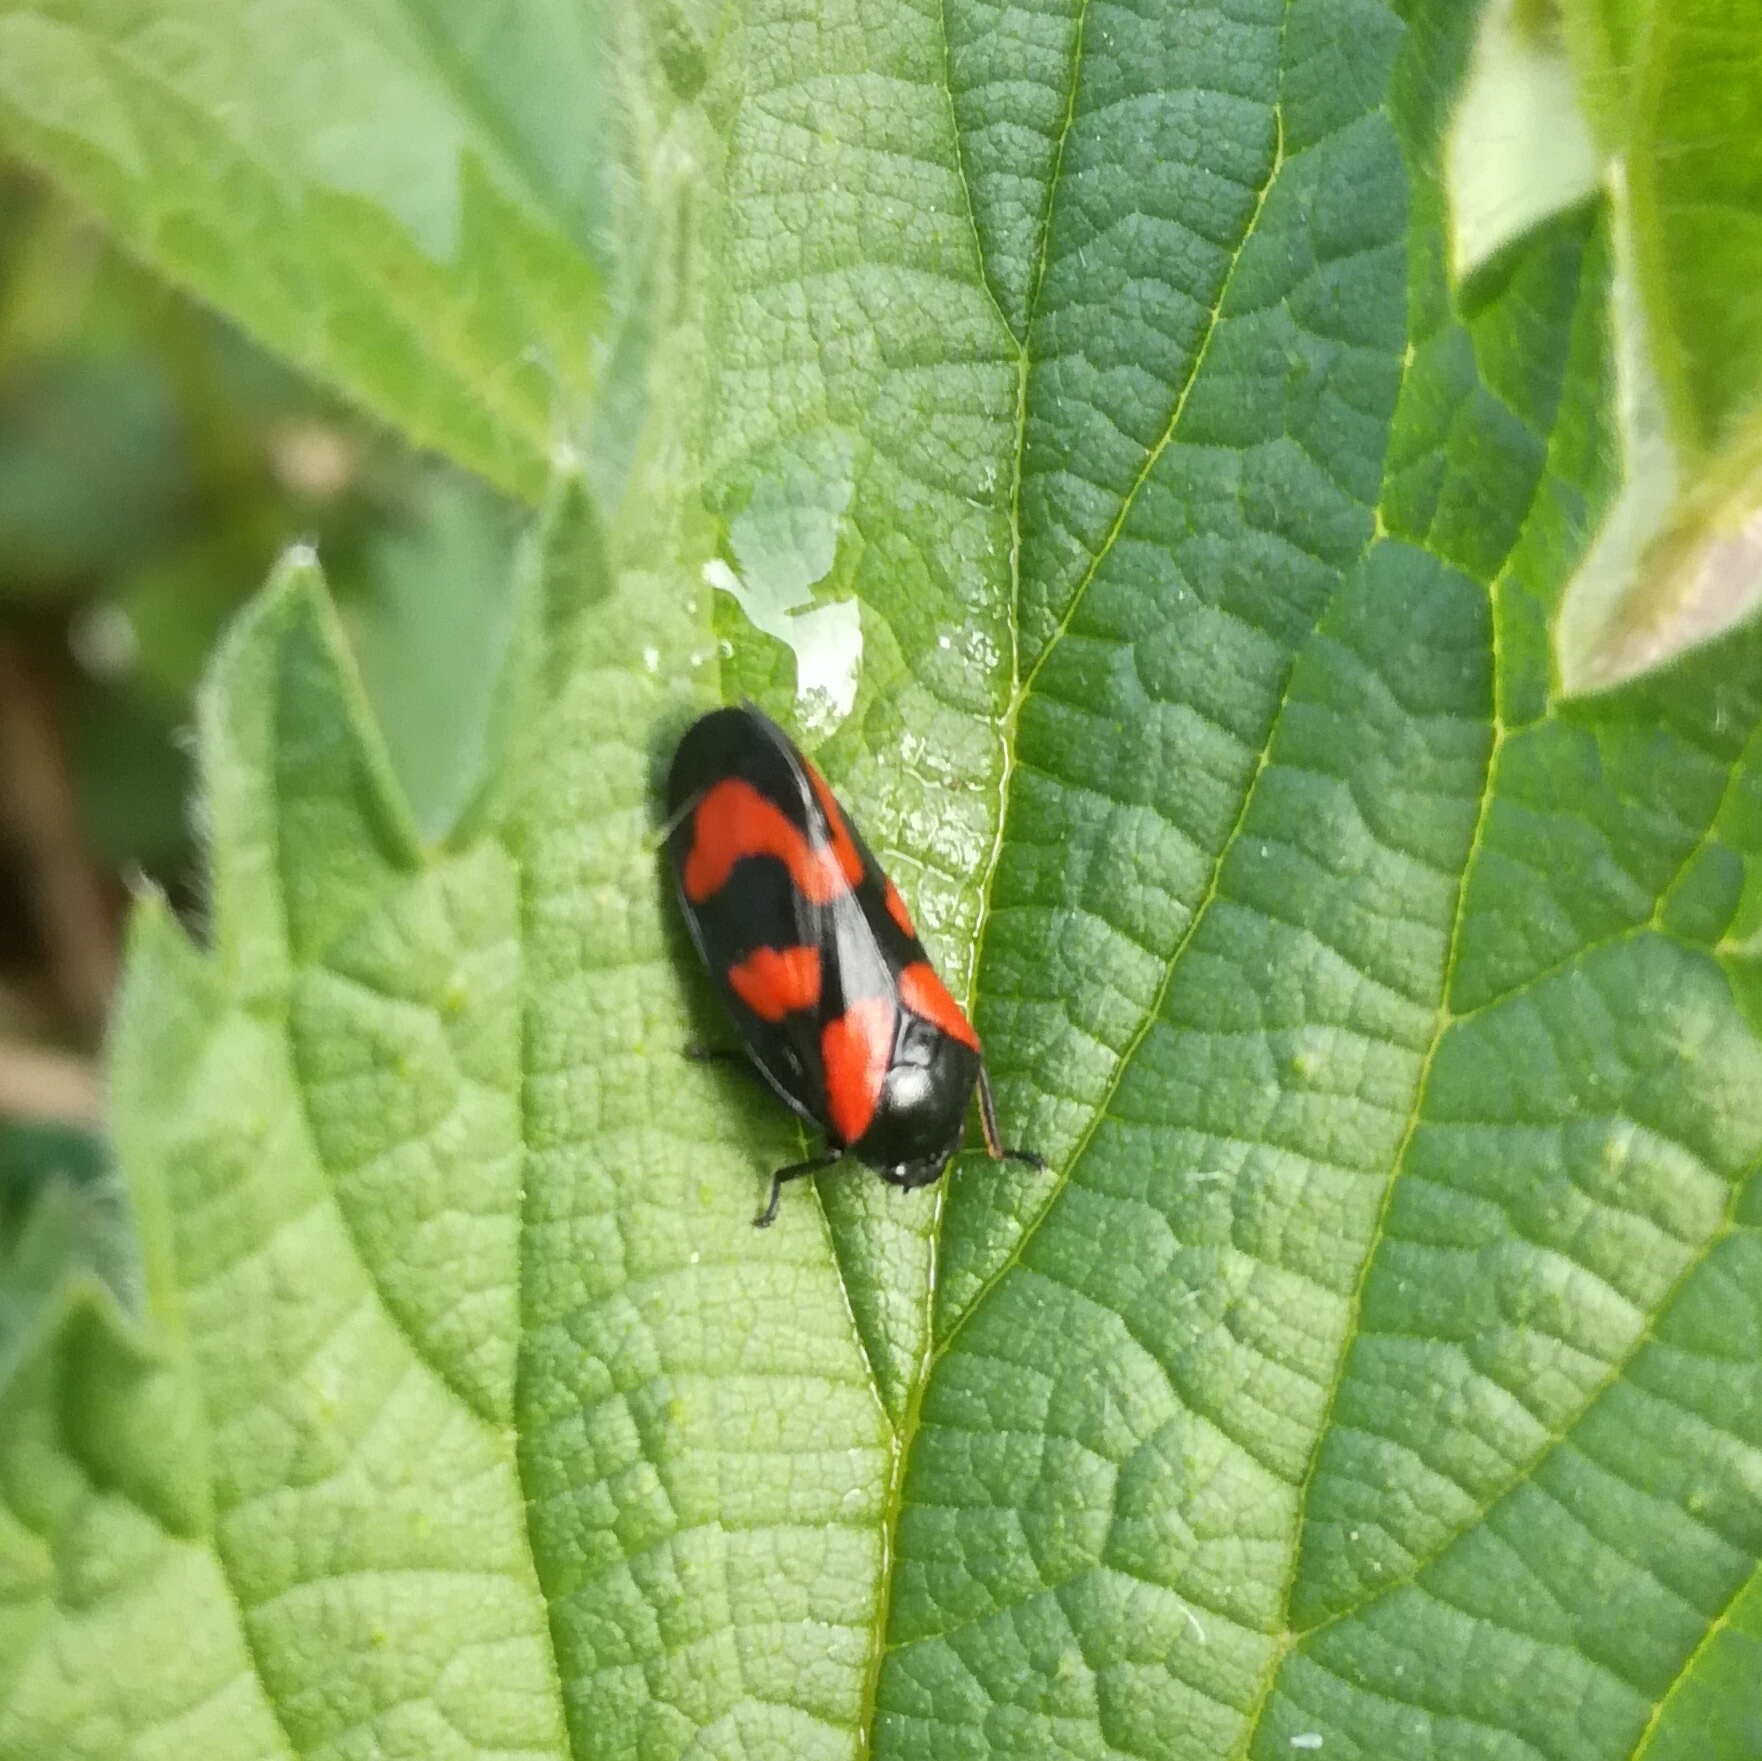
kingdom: Animalia
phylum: Arthropoda
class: Insecta
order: Hemiptera
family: Cercopidae
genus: Cercopis
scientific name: Cercopis vulnerata
